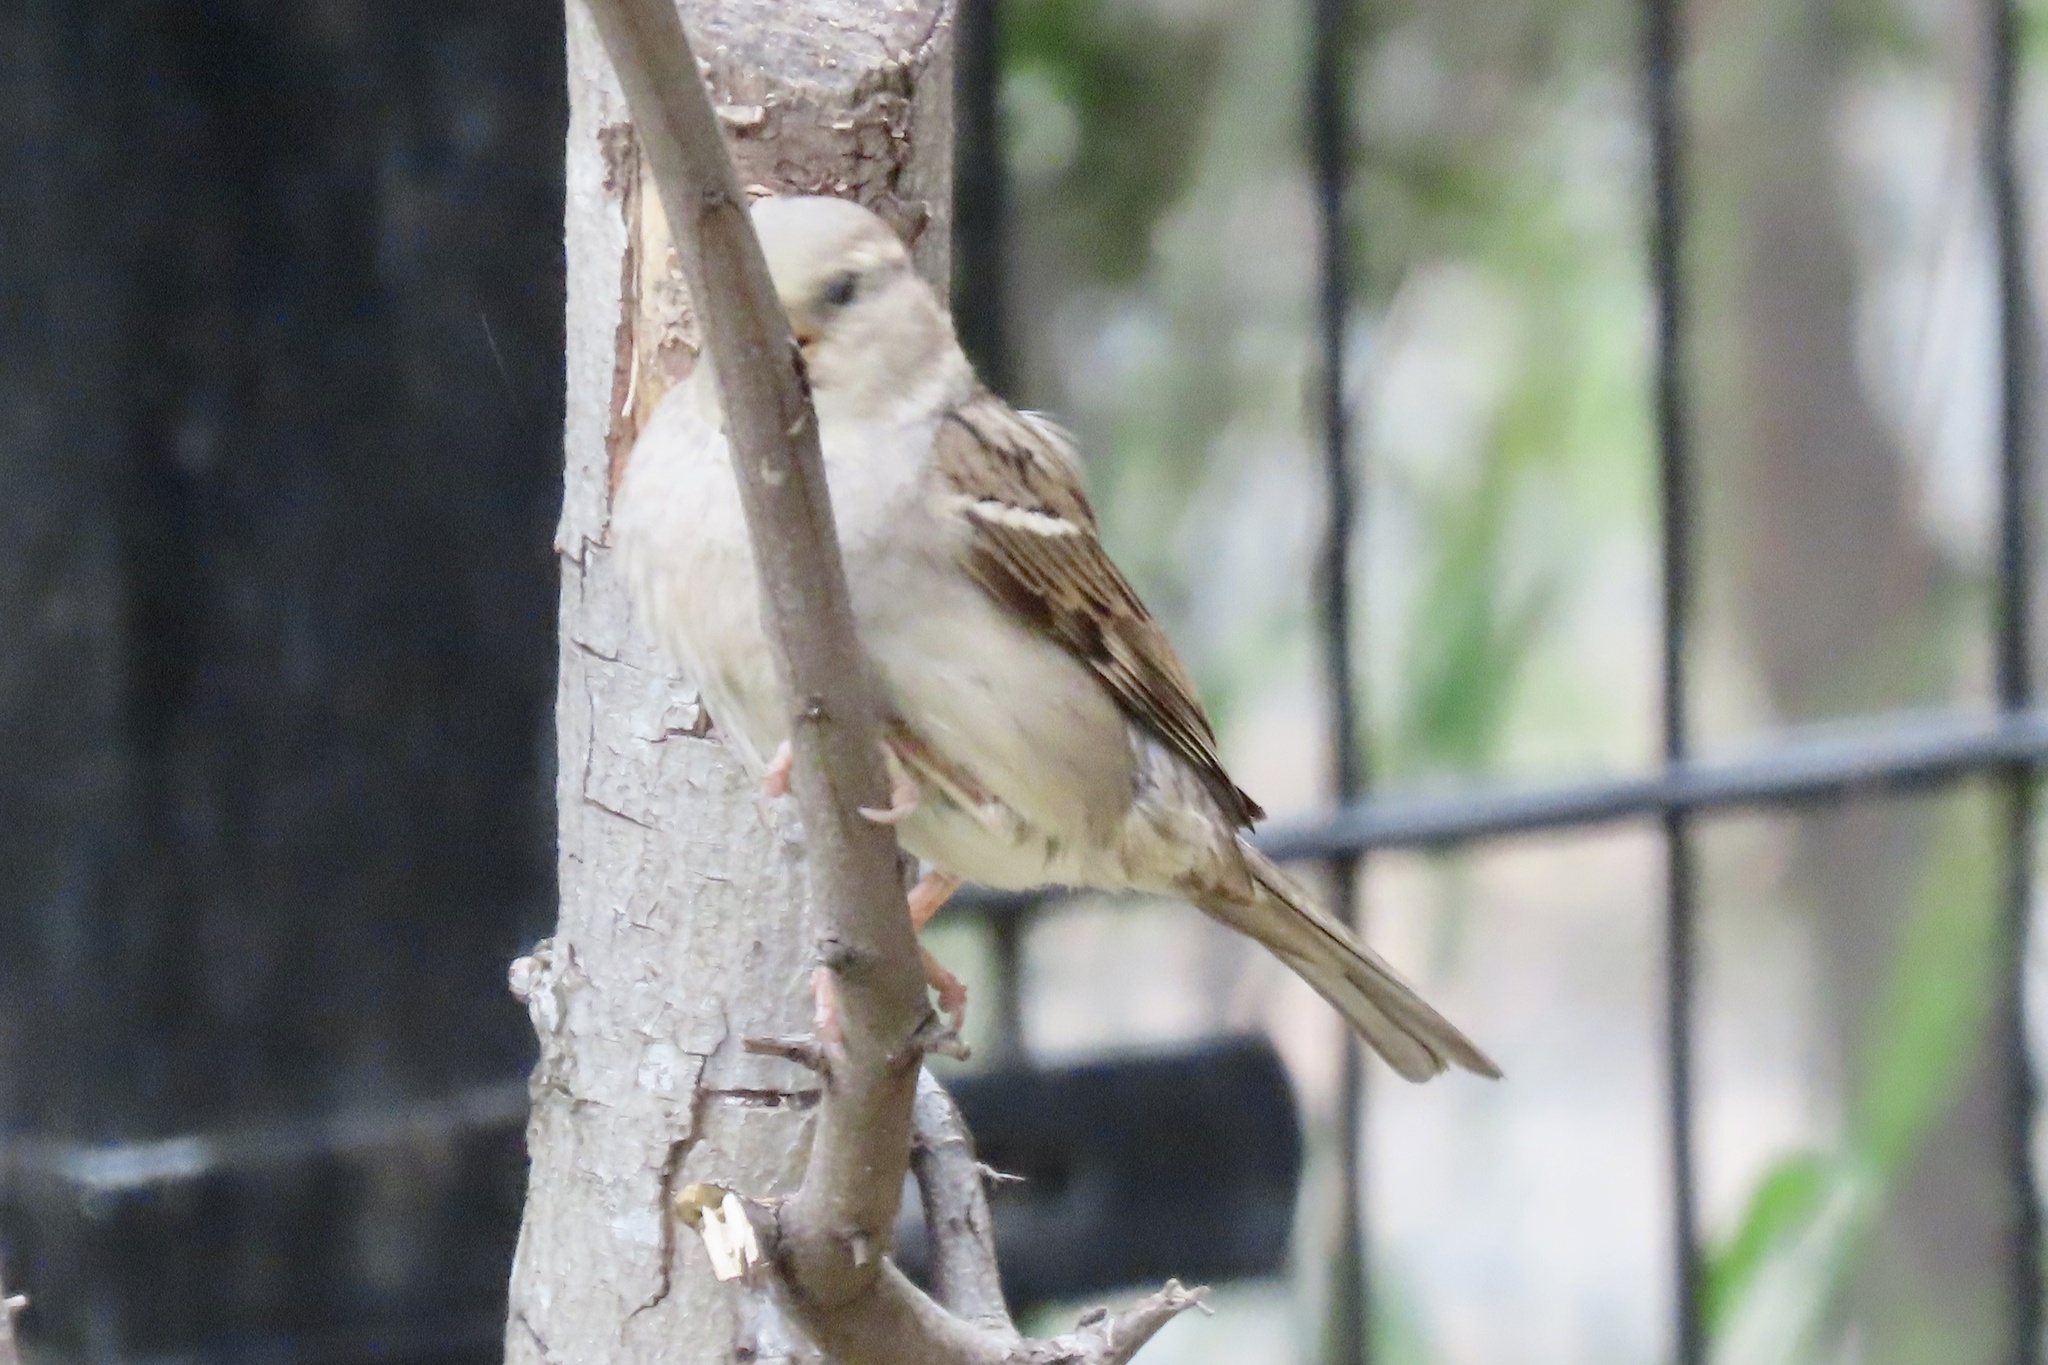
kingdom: Animalia
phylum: Chordata
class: Aves
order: Passeriformes
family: Passeridae
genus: Passer
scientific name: Passer domesticus
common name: House sparrow
